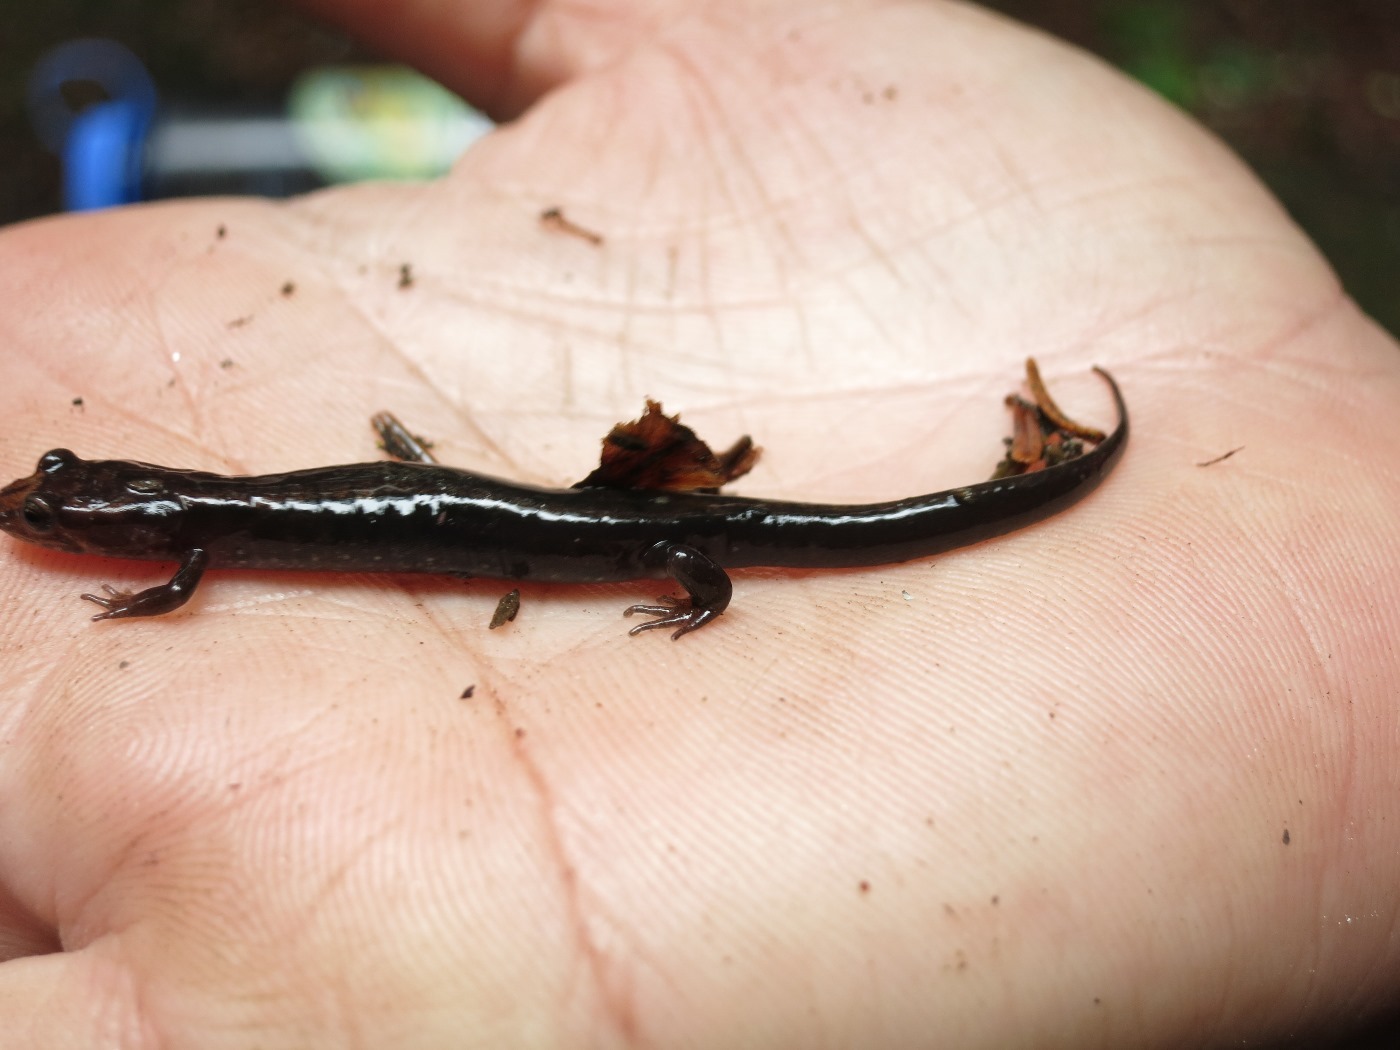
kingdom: Animalia
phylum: Chordata
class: Amphibia
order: Caudata
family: Plethodontidae
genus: Desmognathus
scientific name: Desmognathus
